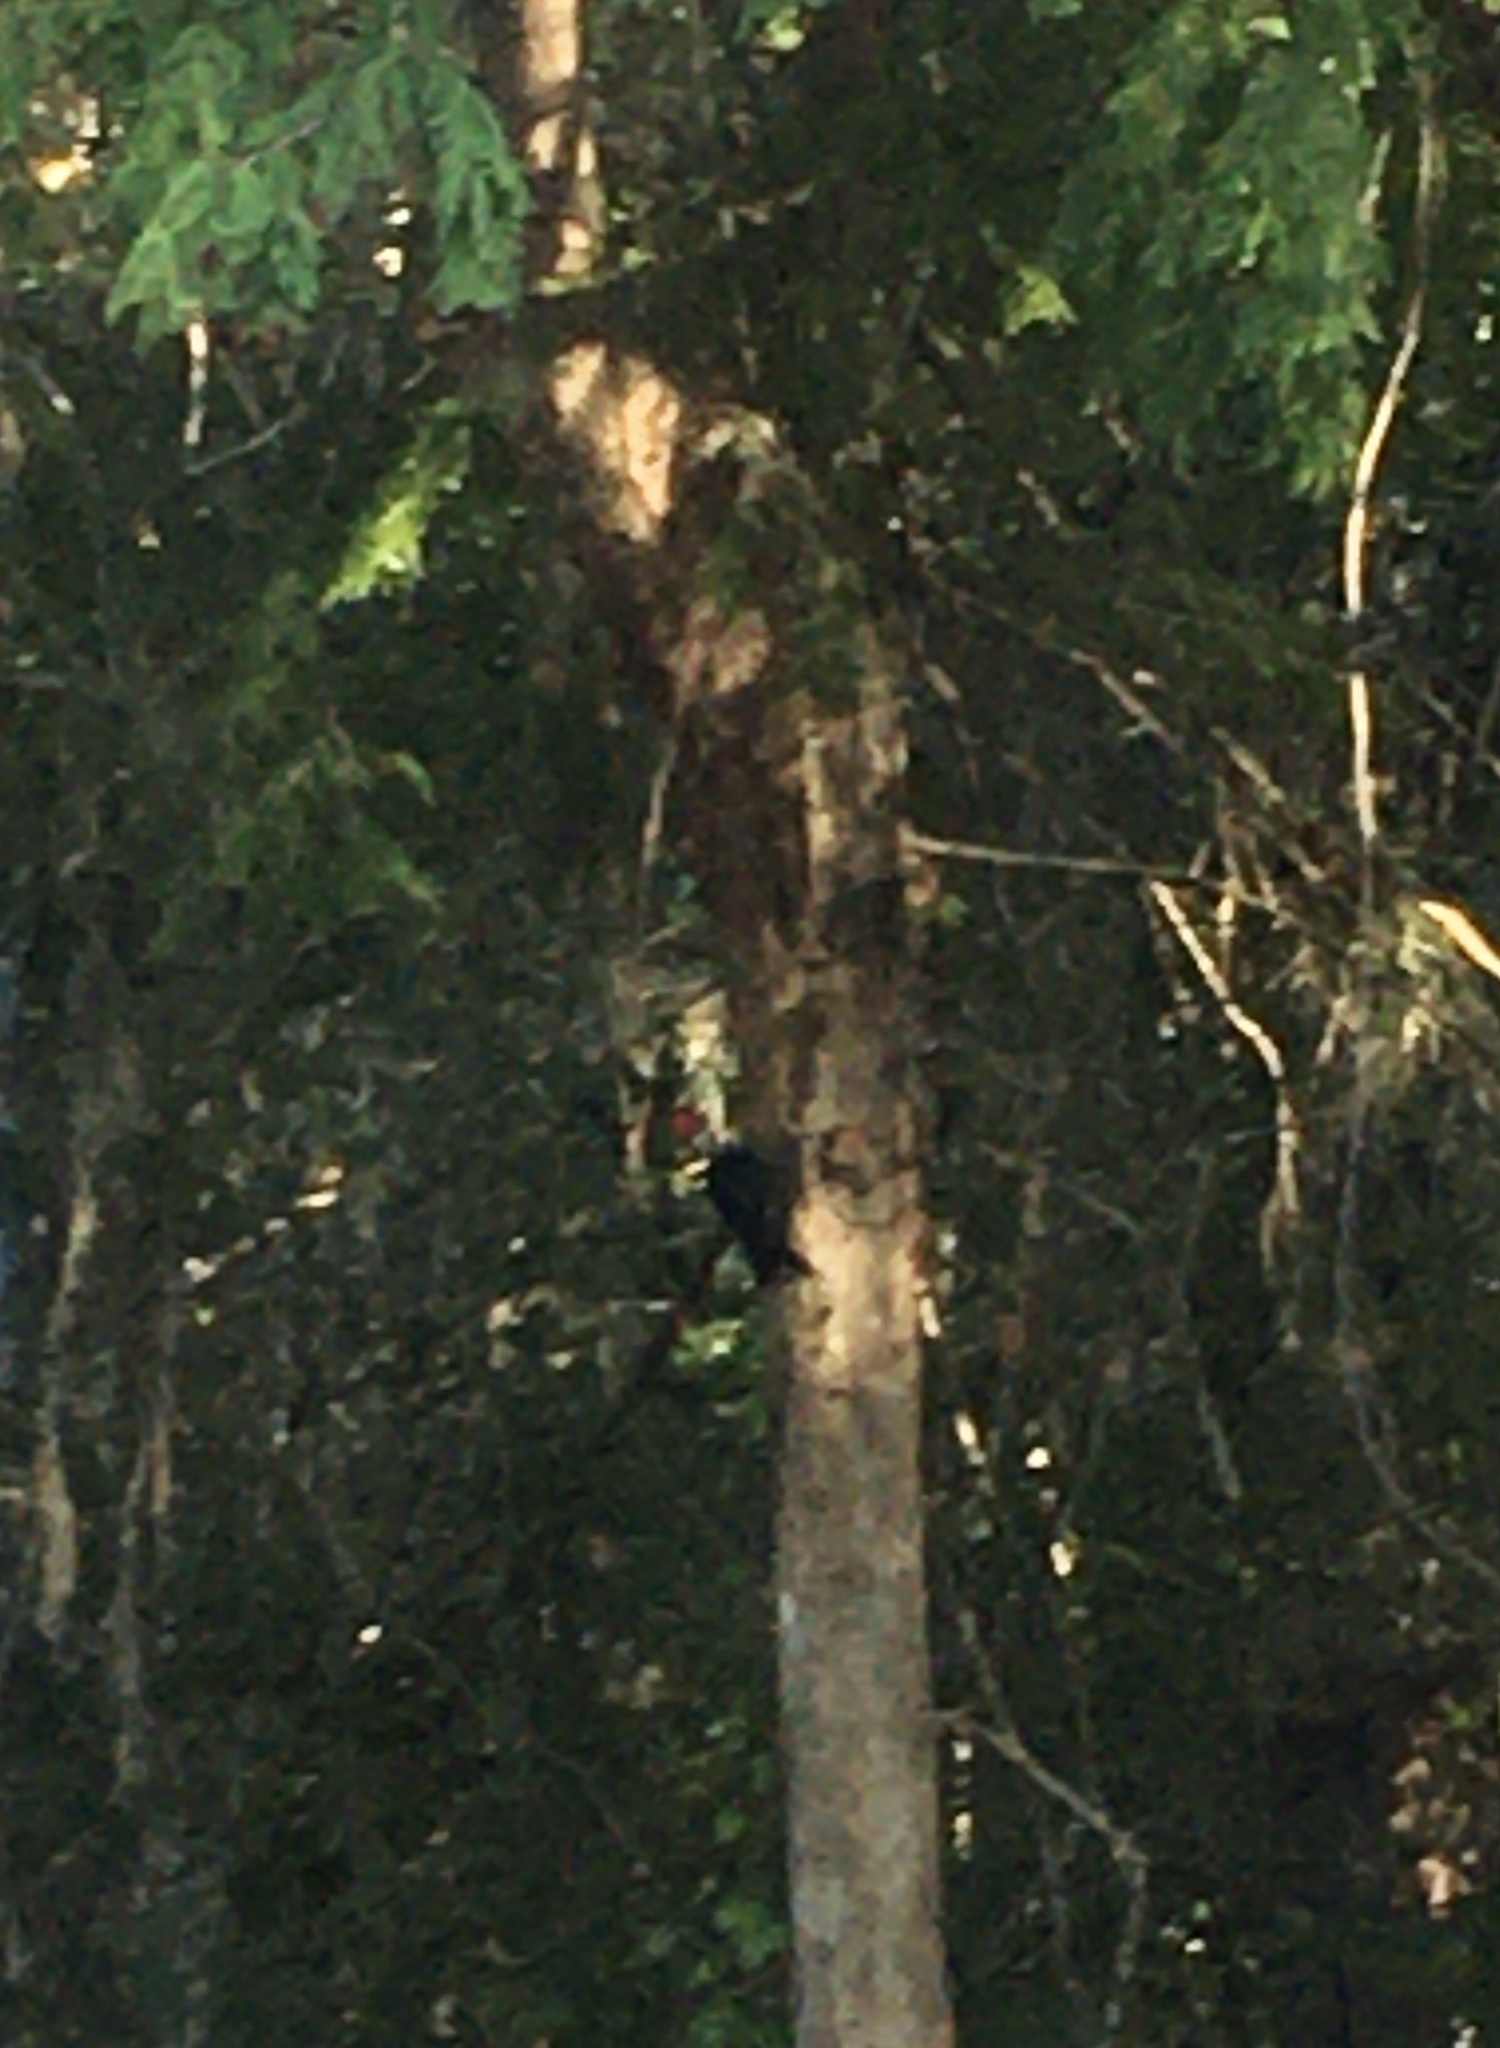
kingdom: Animalia
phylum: Chordata
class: Aves
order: Piciformes
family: Picidae
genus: Dryocopus
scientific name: Dryocopus pileatus
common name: Pileated woodpecker
